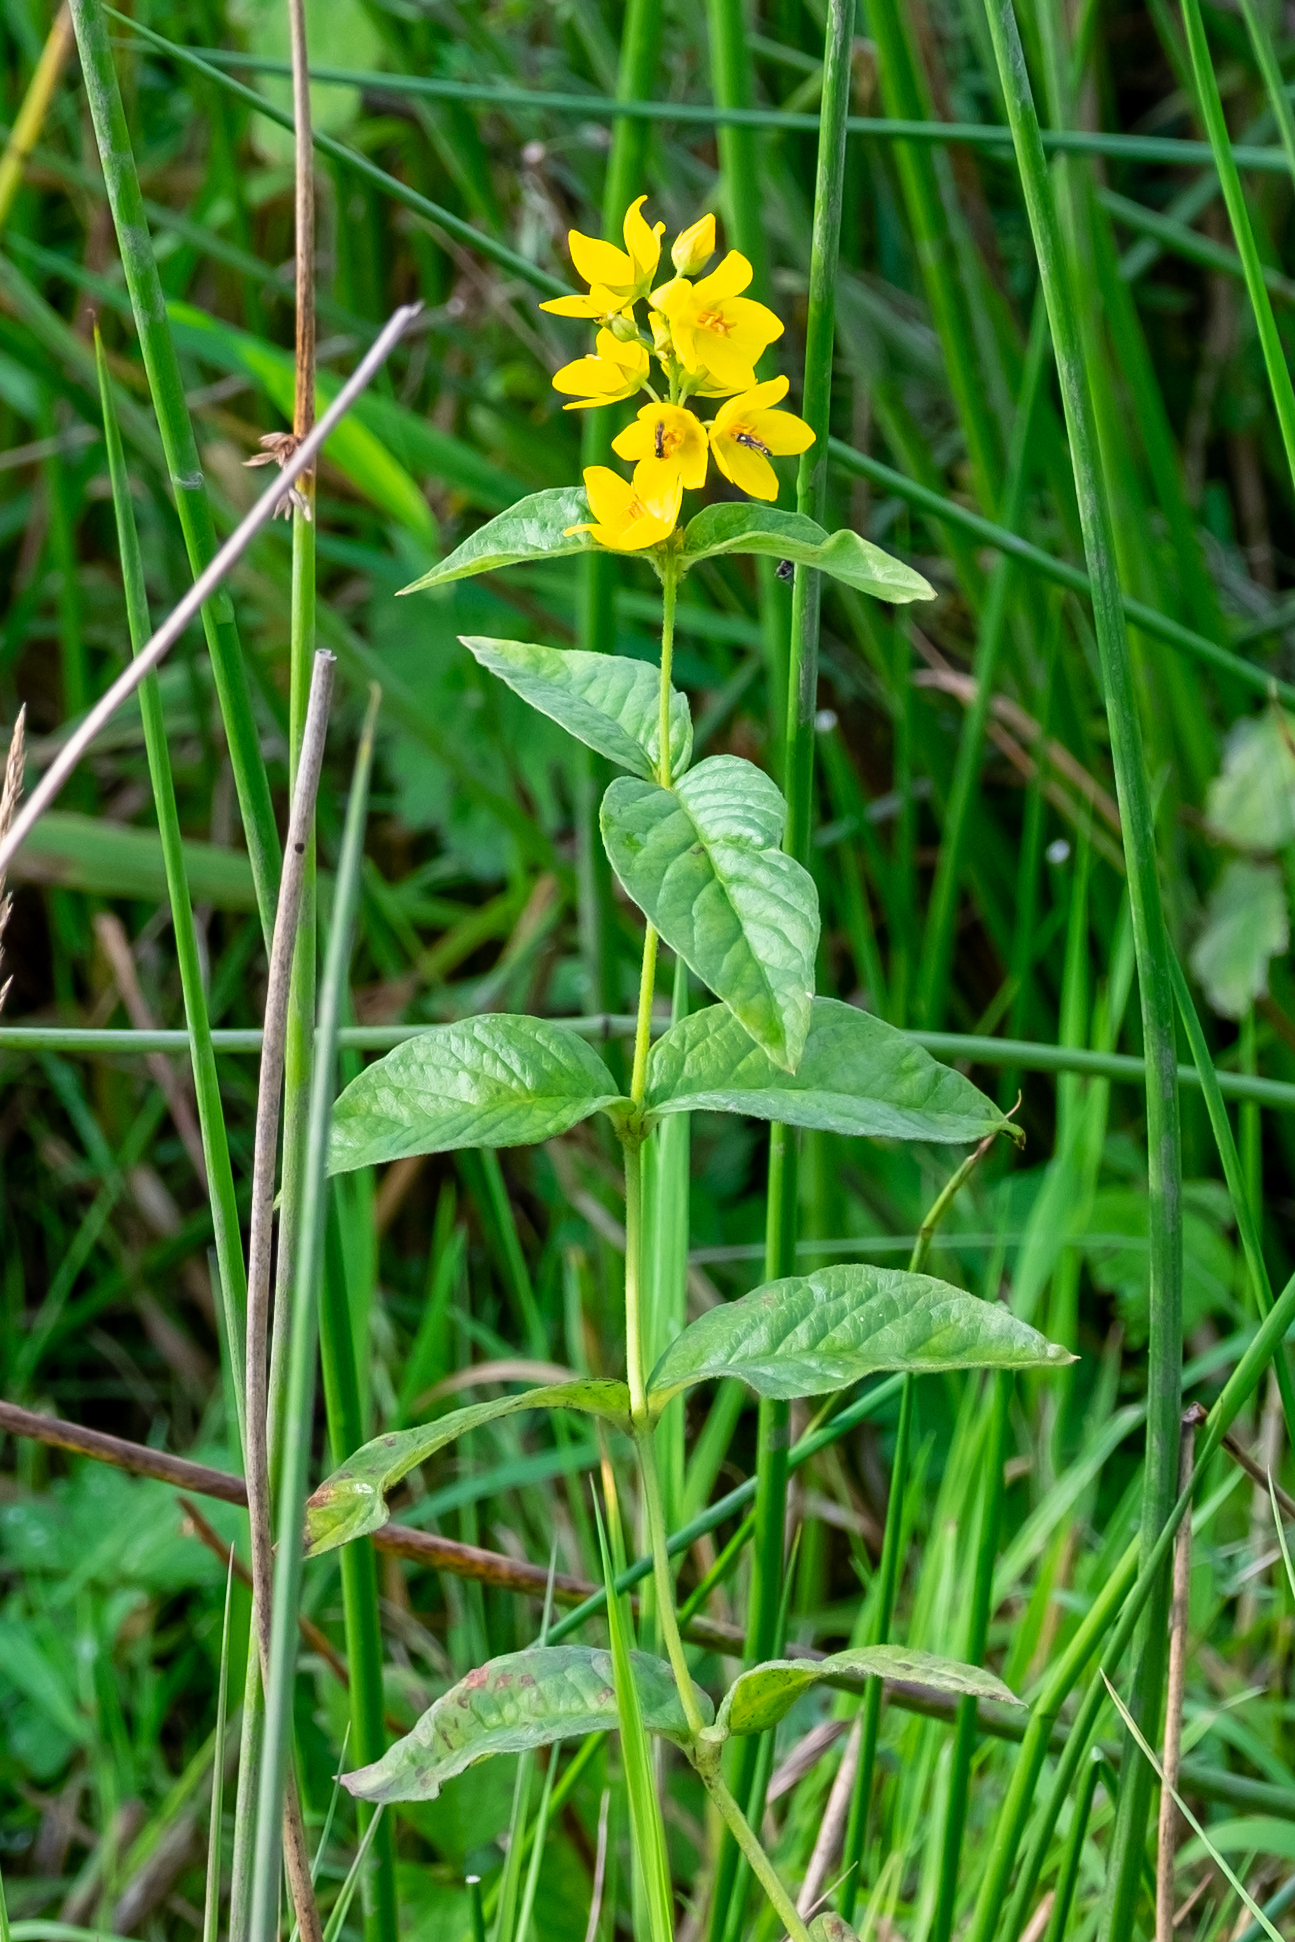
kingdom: Plantae
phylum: Tracheophyta
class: Magnoliopsida
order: Ericales
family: Primulaceae
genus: Lysimachia
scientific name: Lysimachia vulgaris
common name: Yellow loosestrife
